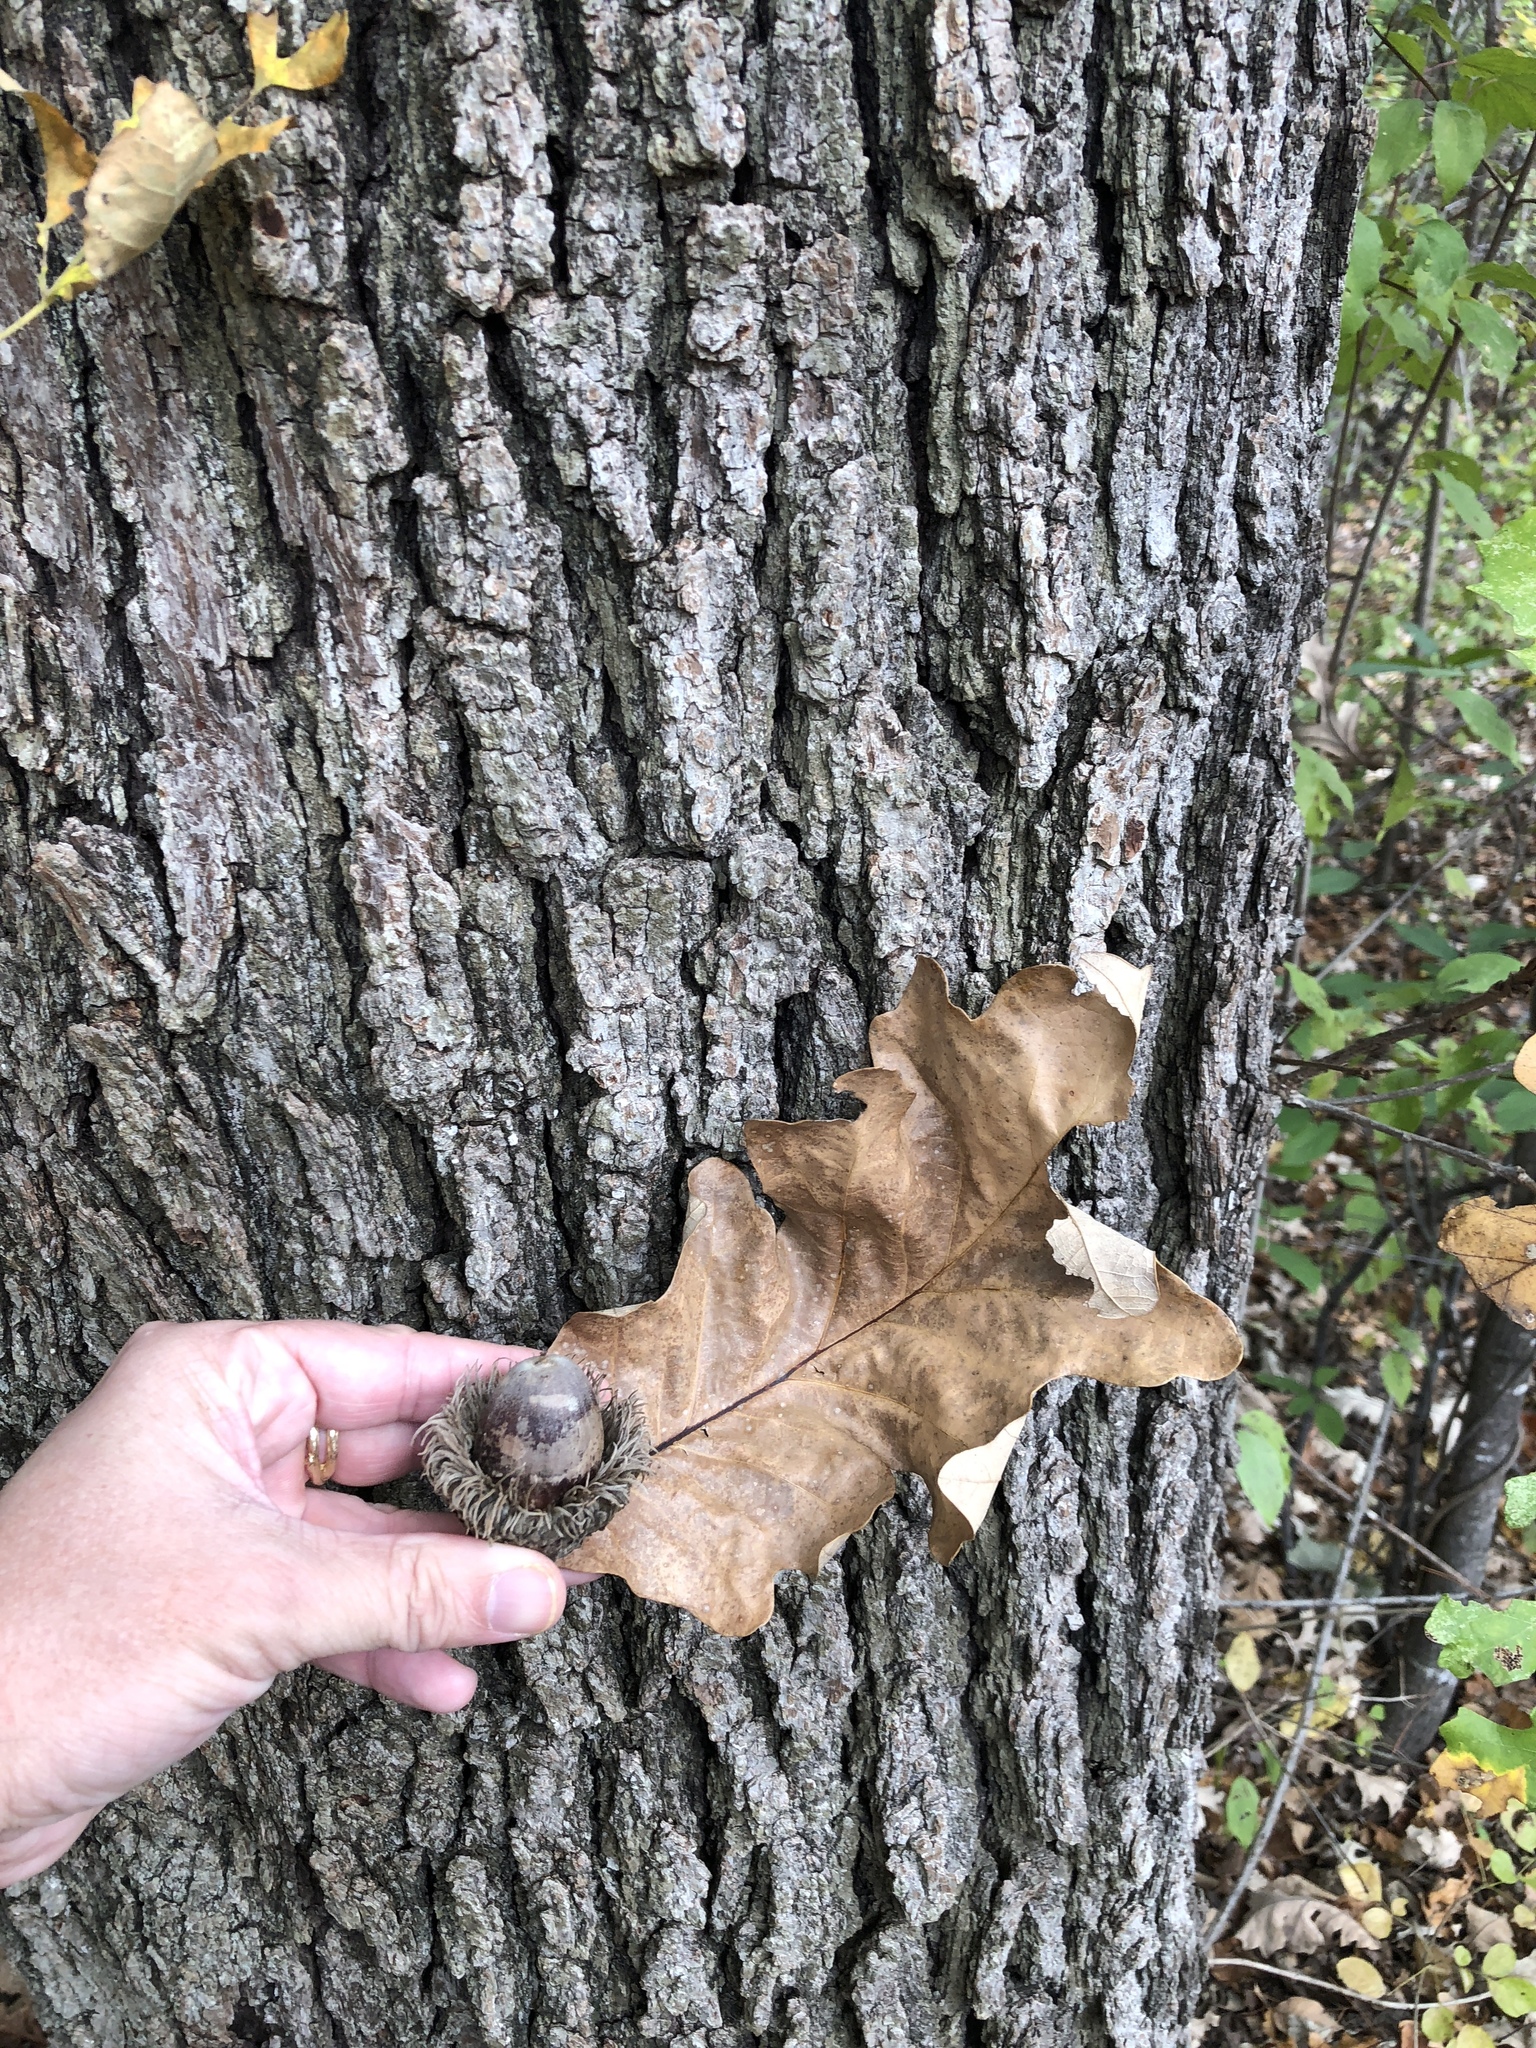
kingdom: Plantae
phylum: Tracheophyta
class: Magnoliopsida
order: Fagales
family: Fagaceae
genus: Quercus
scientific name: Quercus macrocarpa
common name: Bur oak
